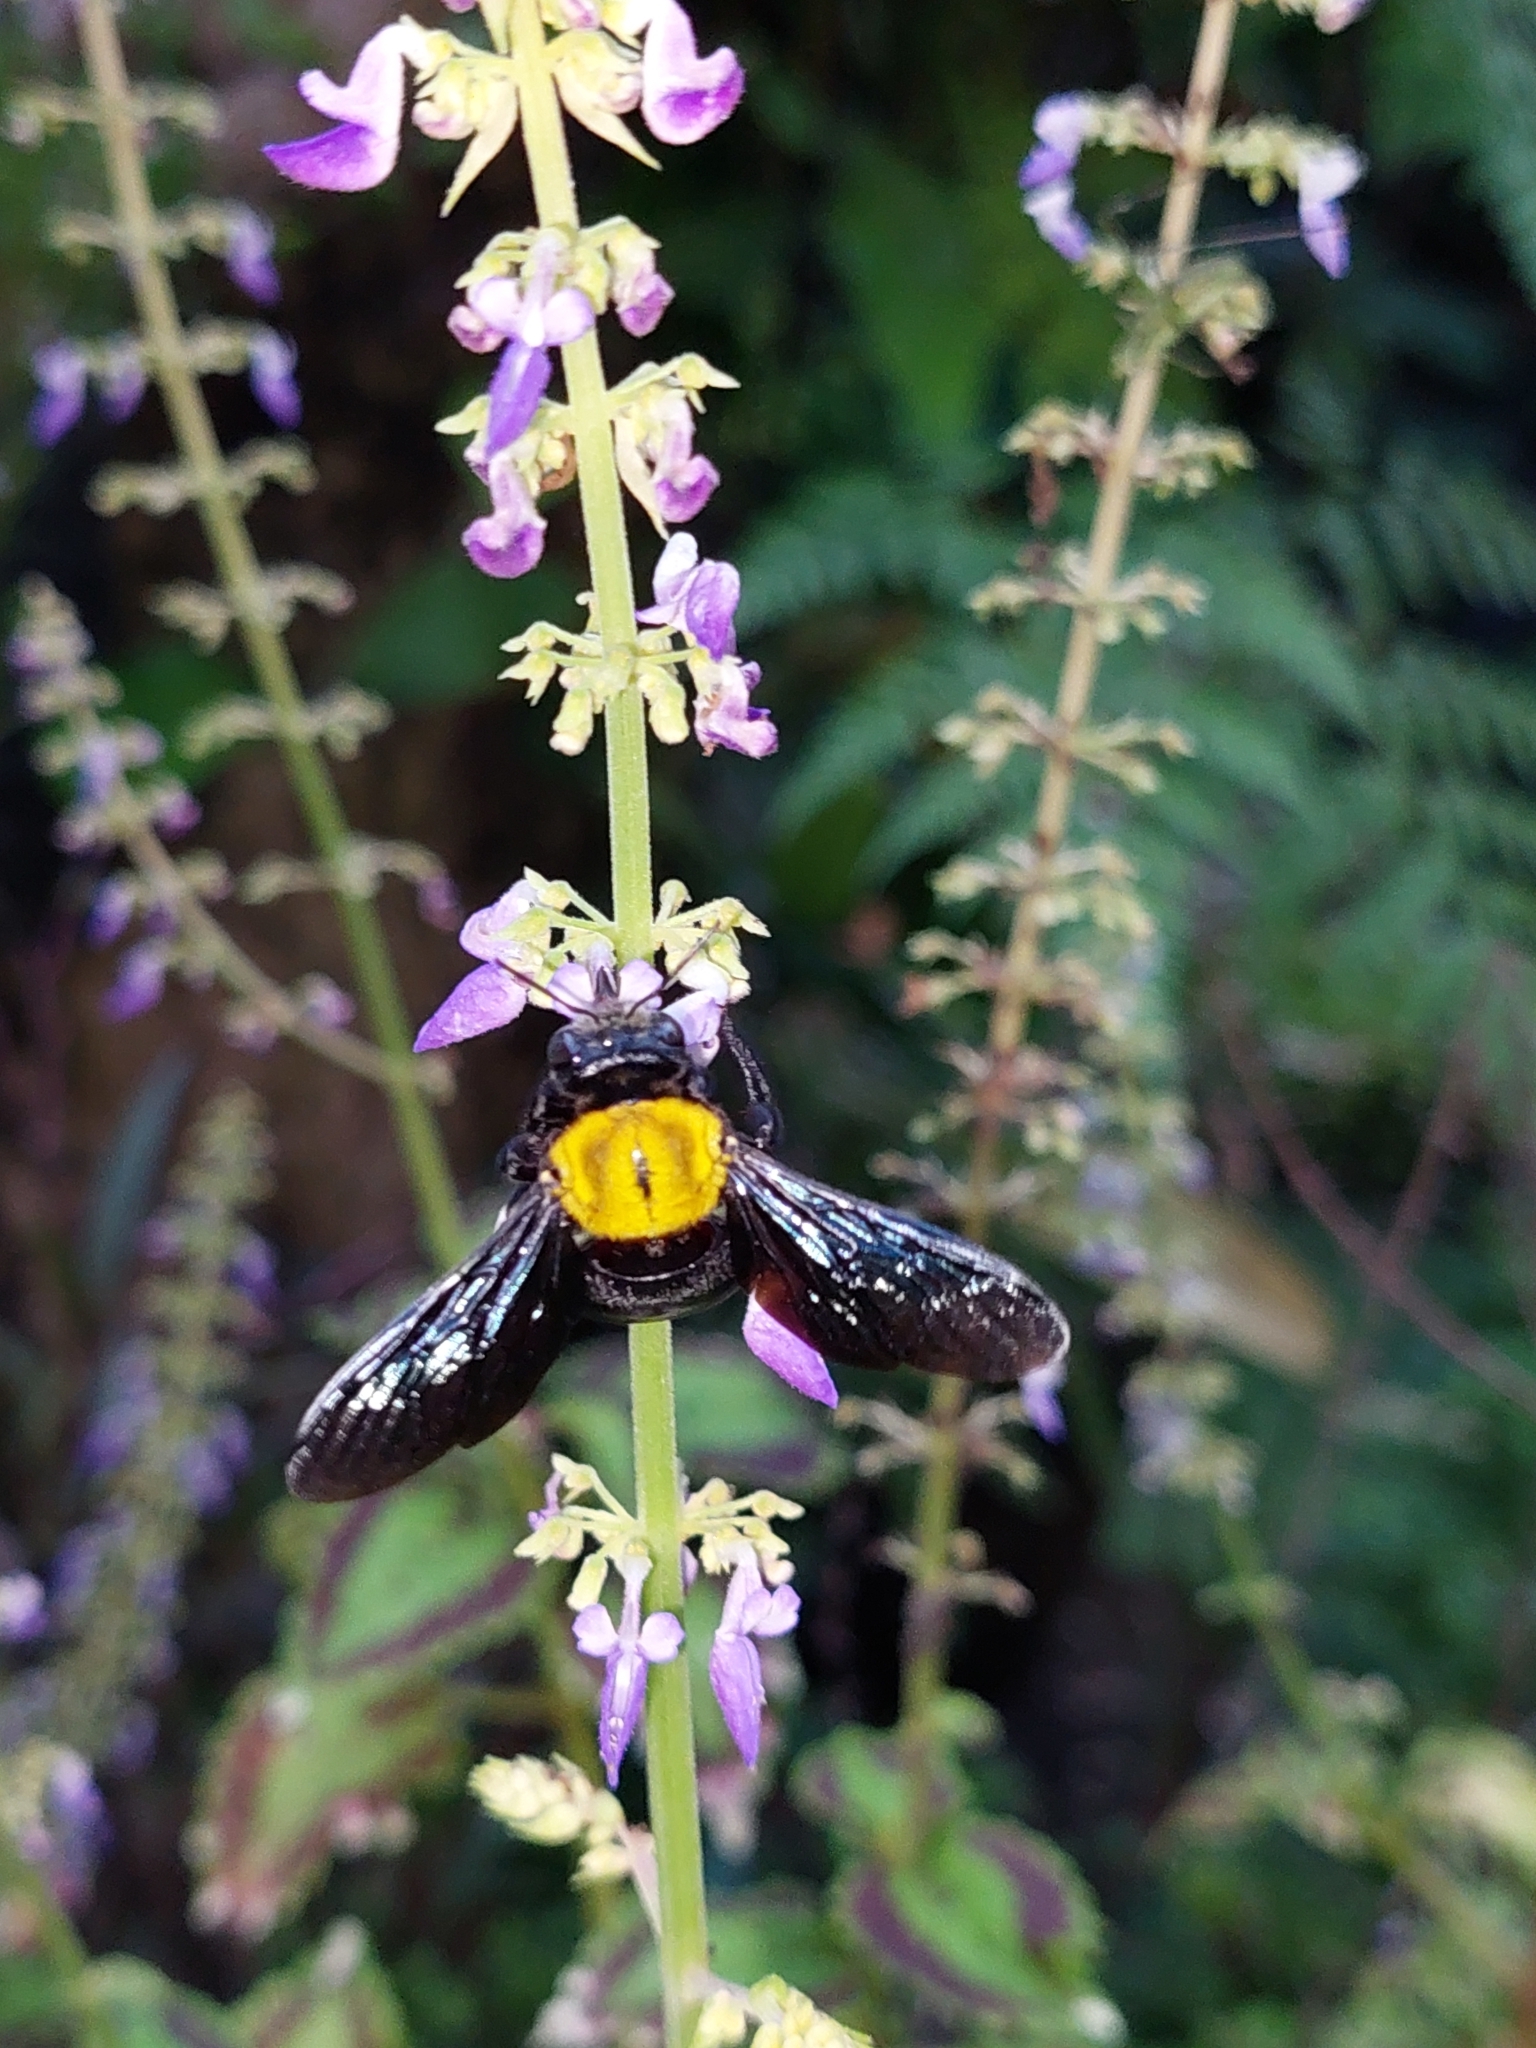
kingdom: Animalia
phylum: Arthropoda
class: Insecta
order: Hymenoptera
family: Apidae
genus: Xylocopa
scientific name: Xylocopa aestuans
